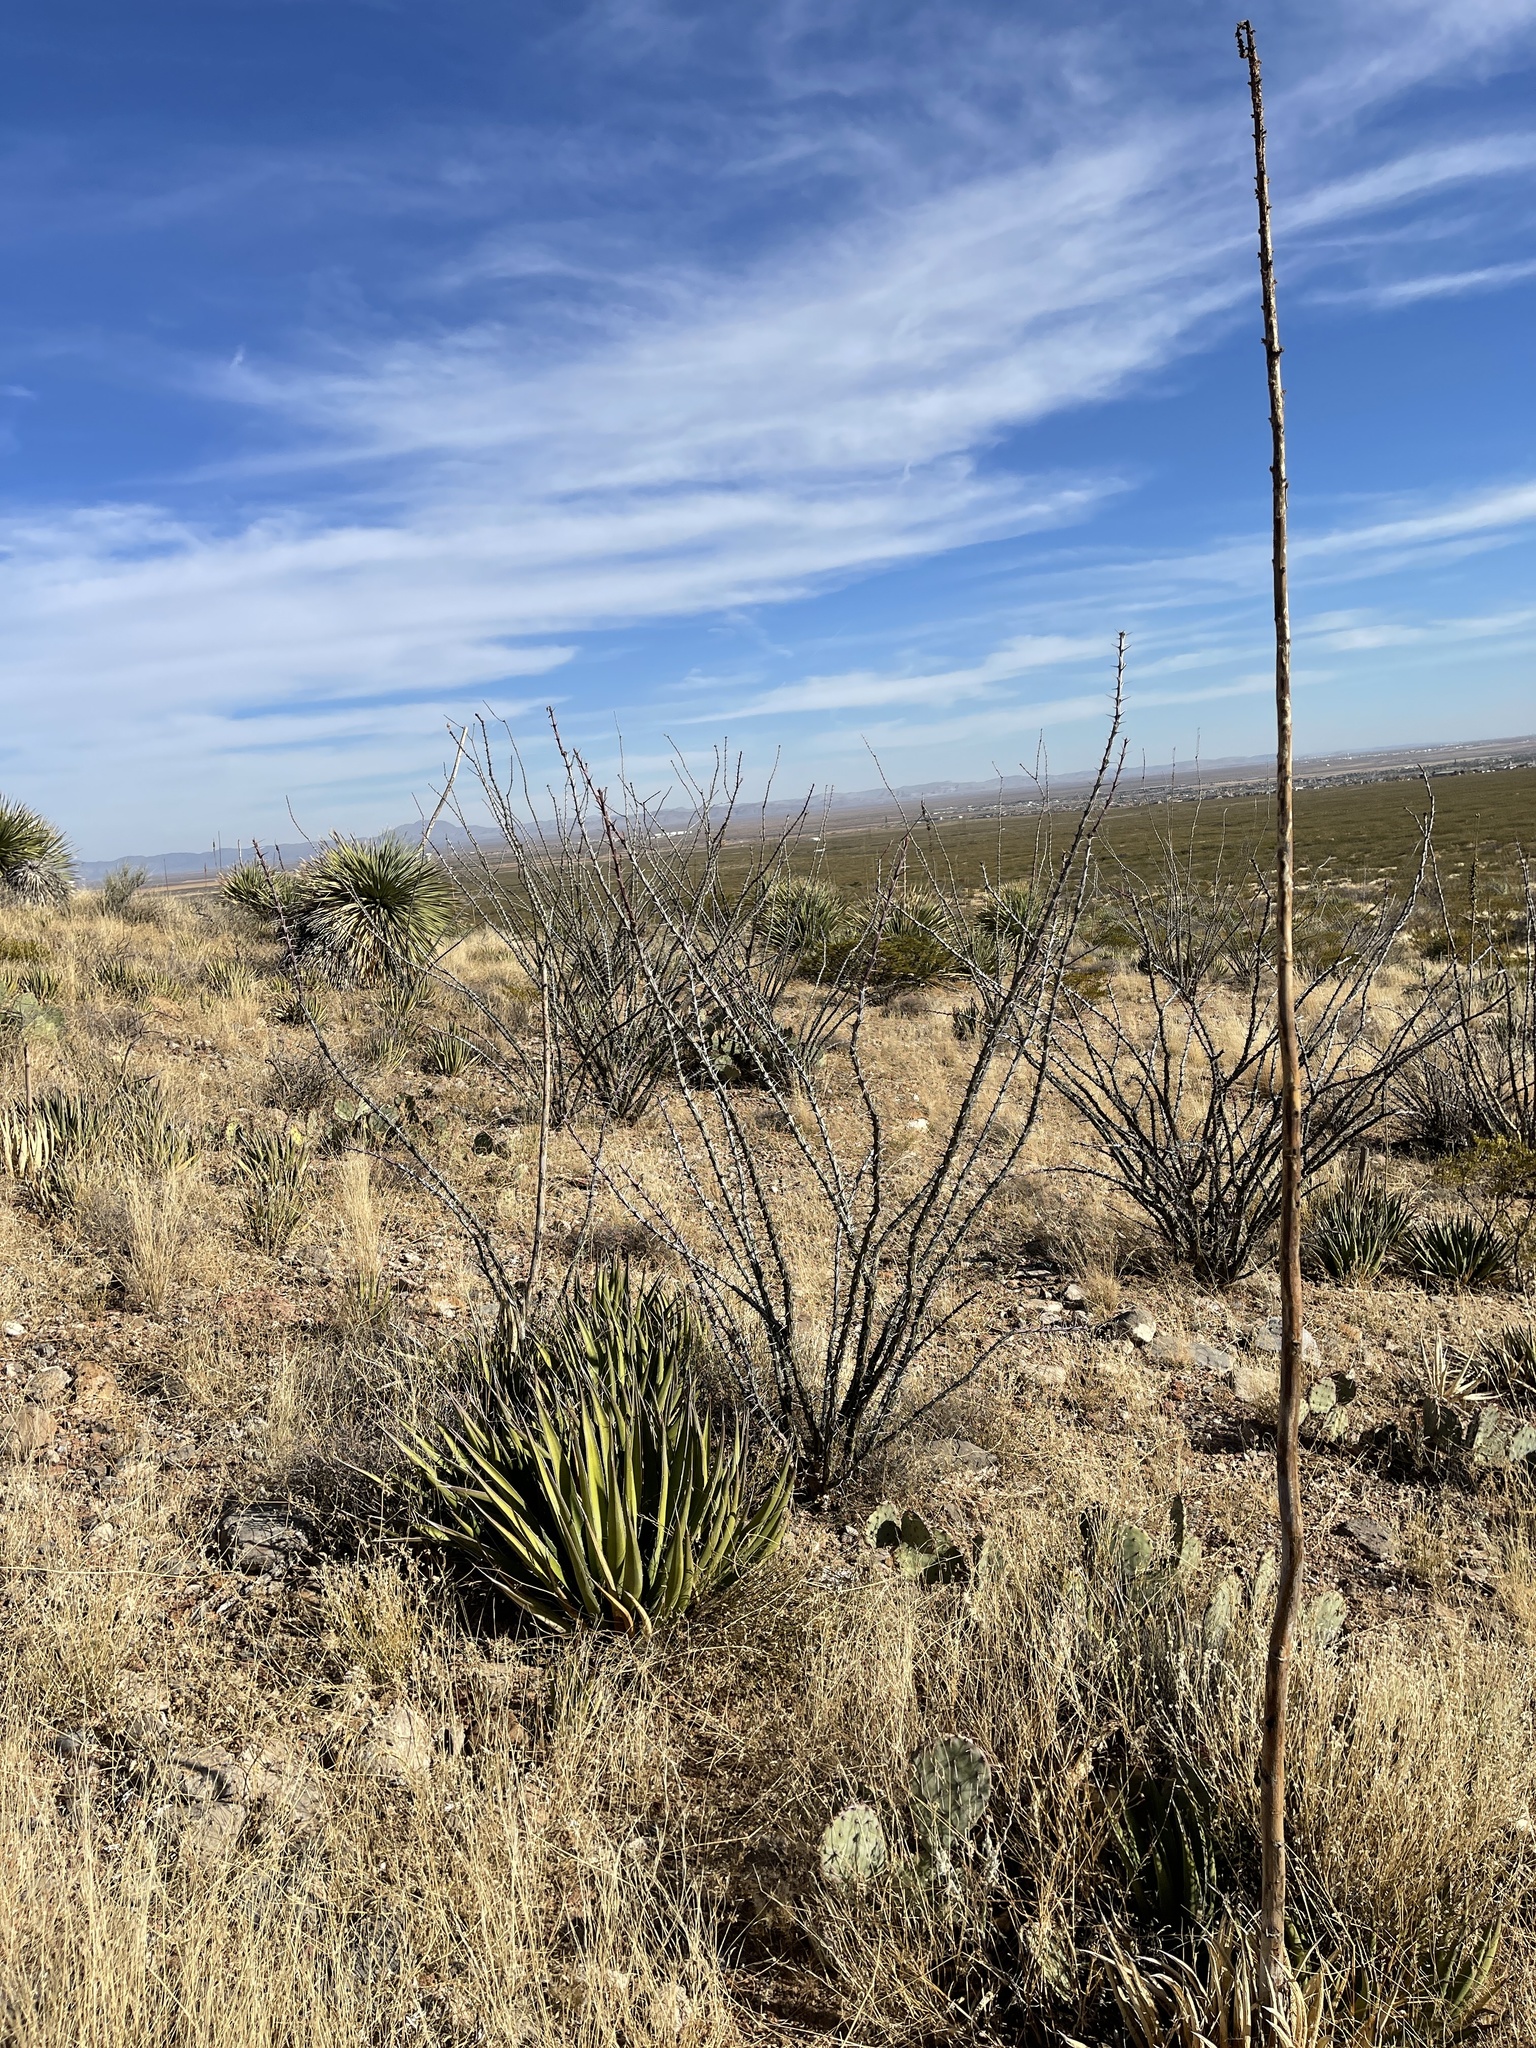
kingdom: Plantae
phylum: Tracheophyta
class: Magnoliopsida
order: Ericales
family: Fouquieriaceae
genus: Fouquieria
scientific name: Fouquieria splendens
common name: Vine-cactus
